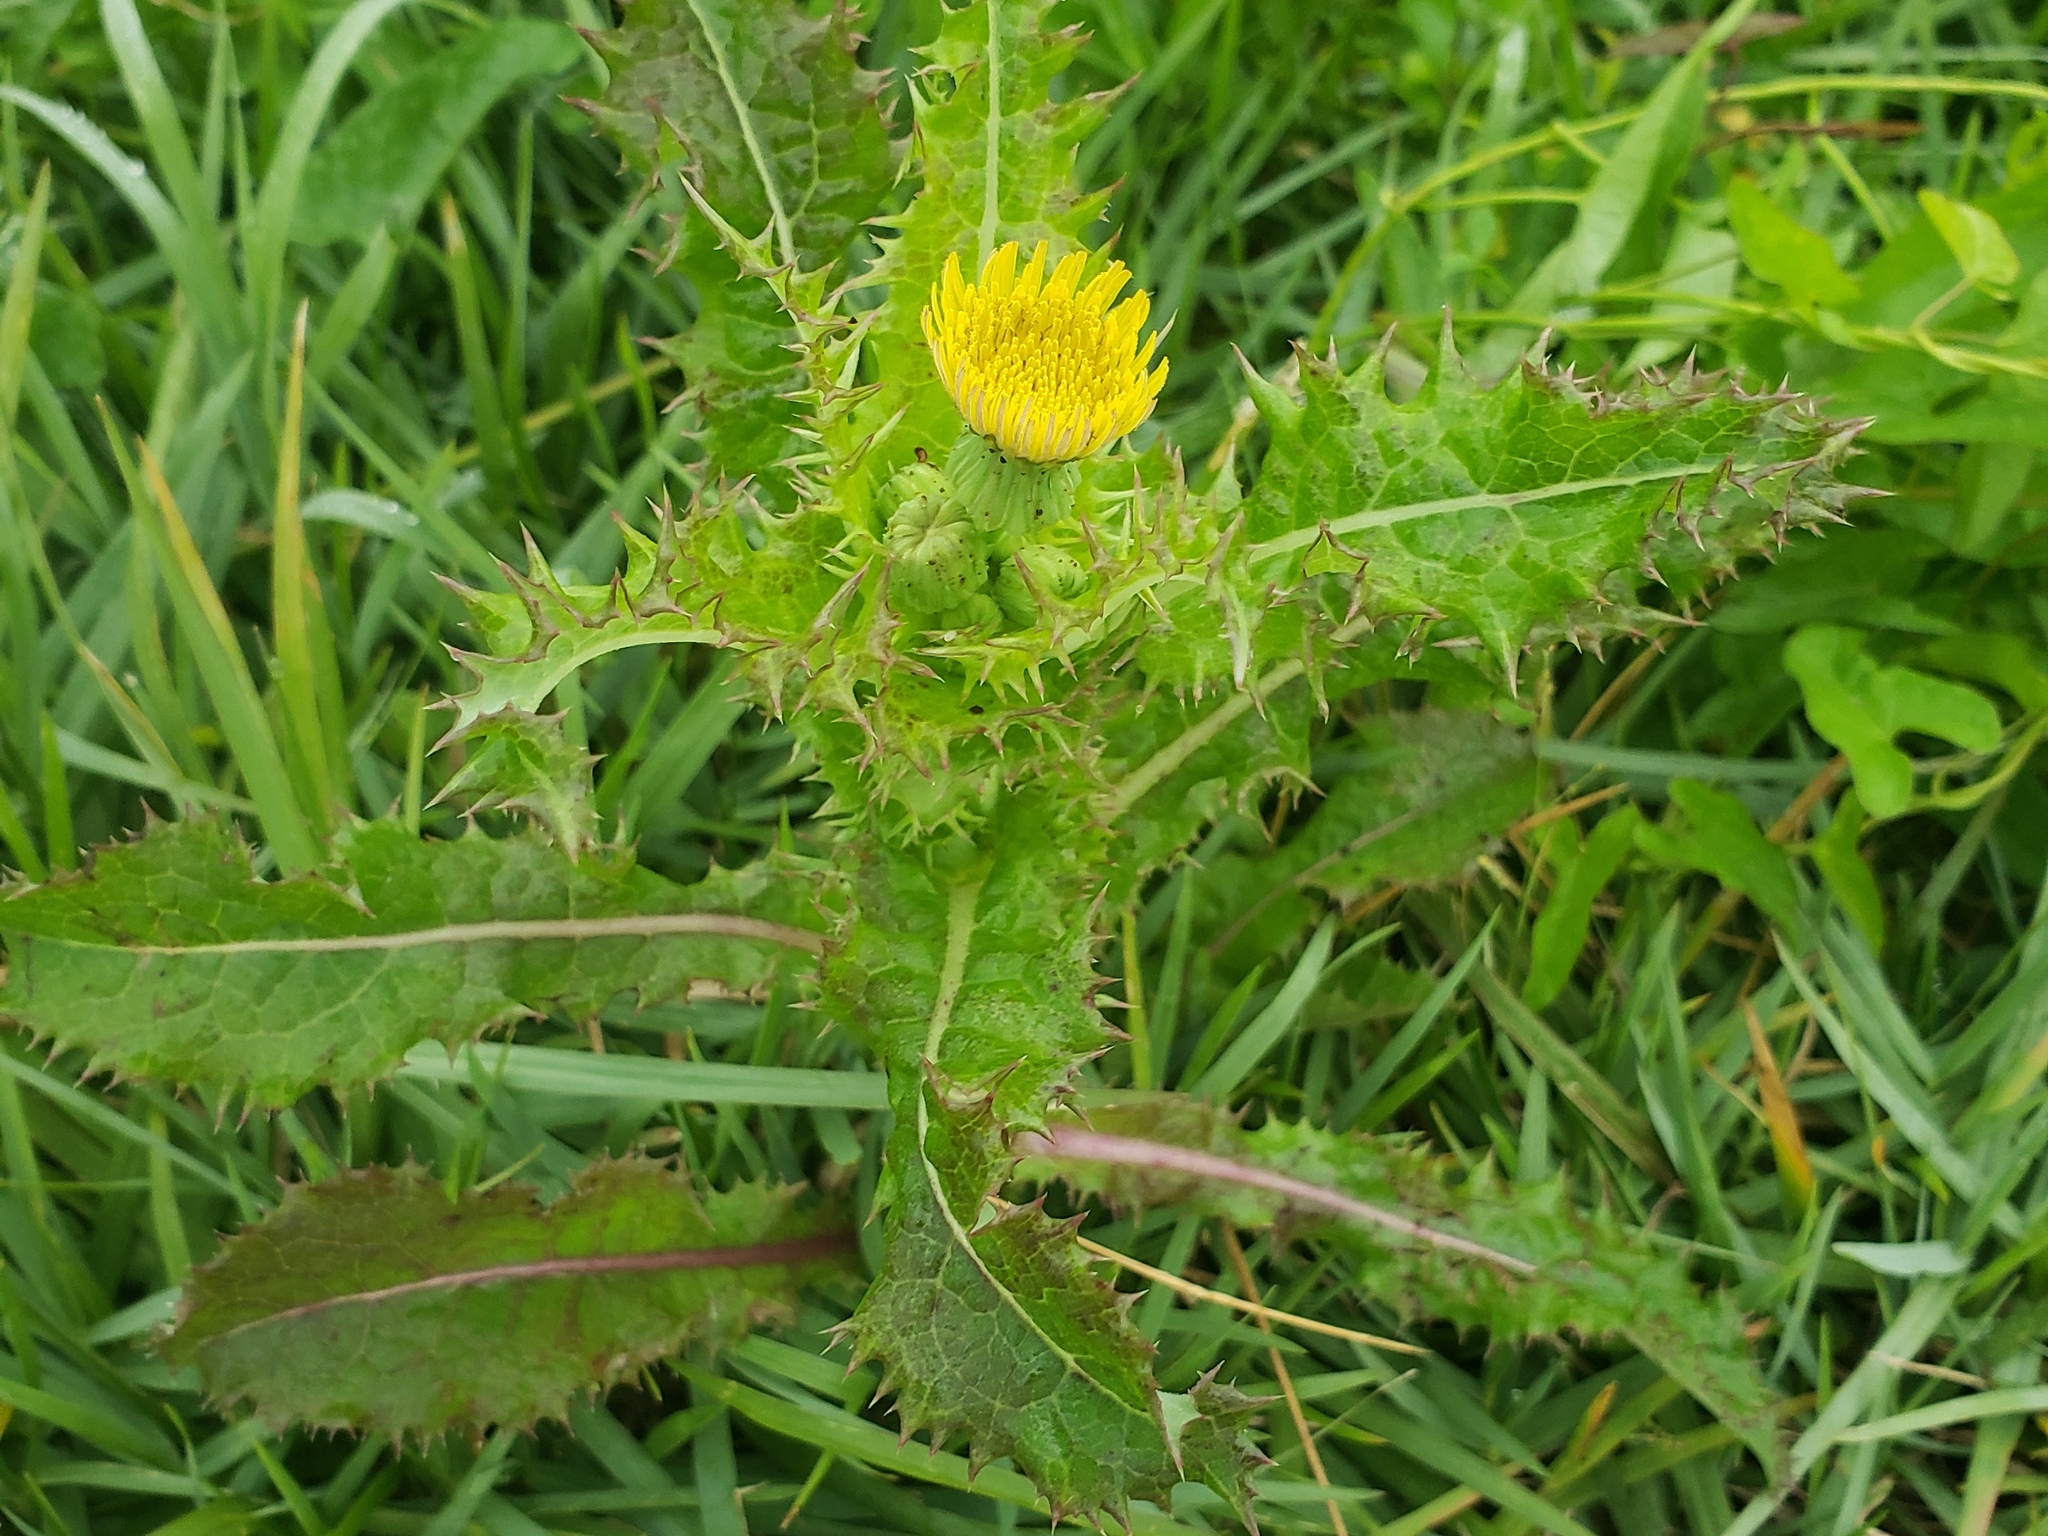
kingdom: Plantae
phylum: Tracheophyta
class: Magnoliopsida
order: Asterales
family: Asteraceae
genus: Sonchus
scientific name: Sonchus asper
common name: Prickly sow-thistle
